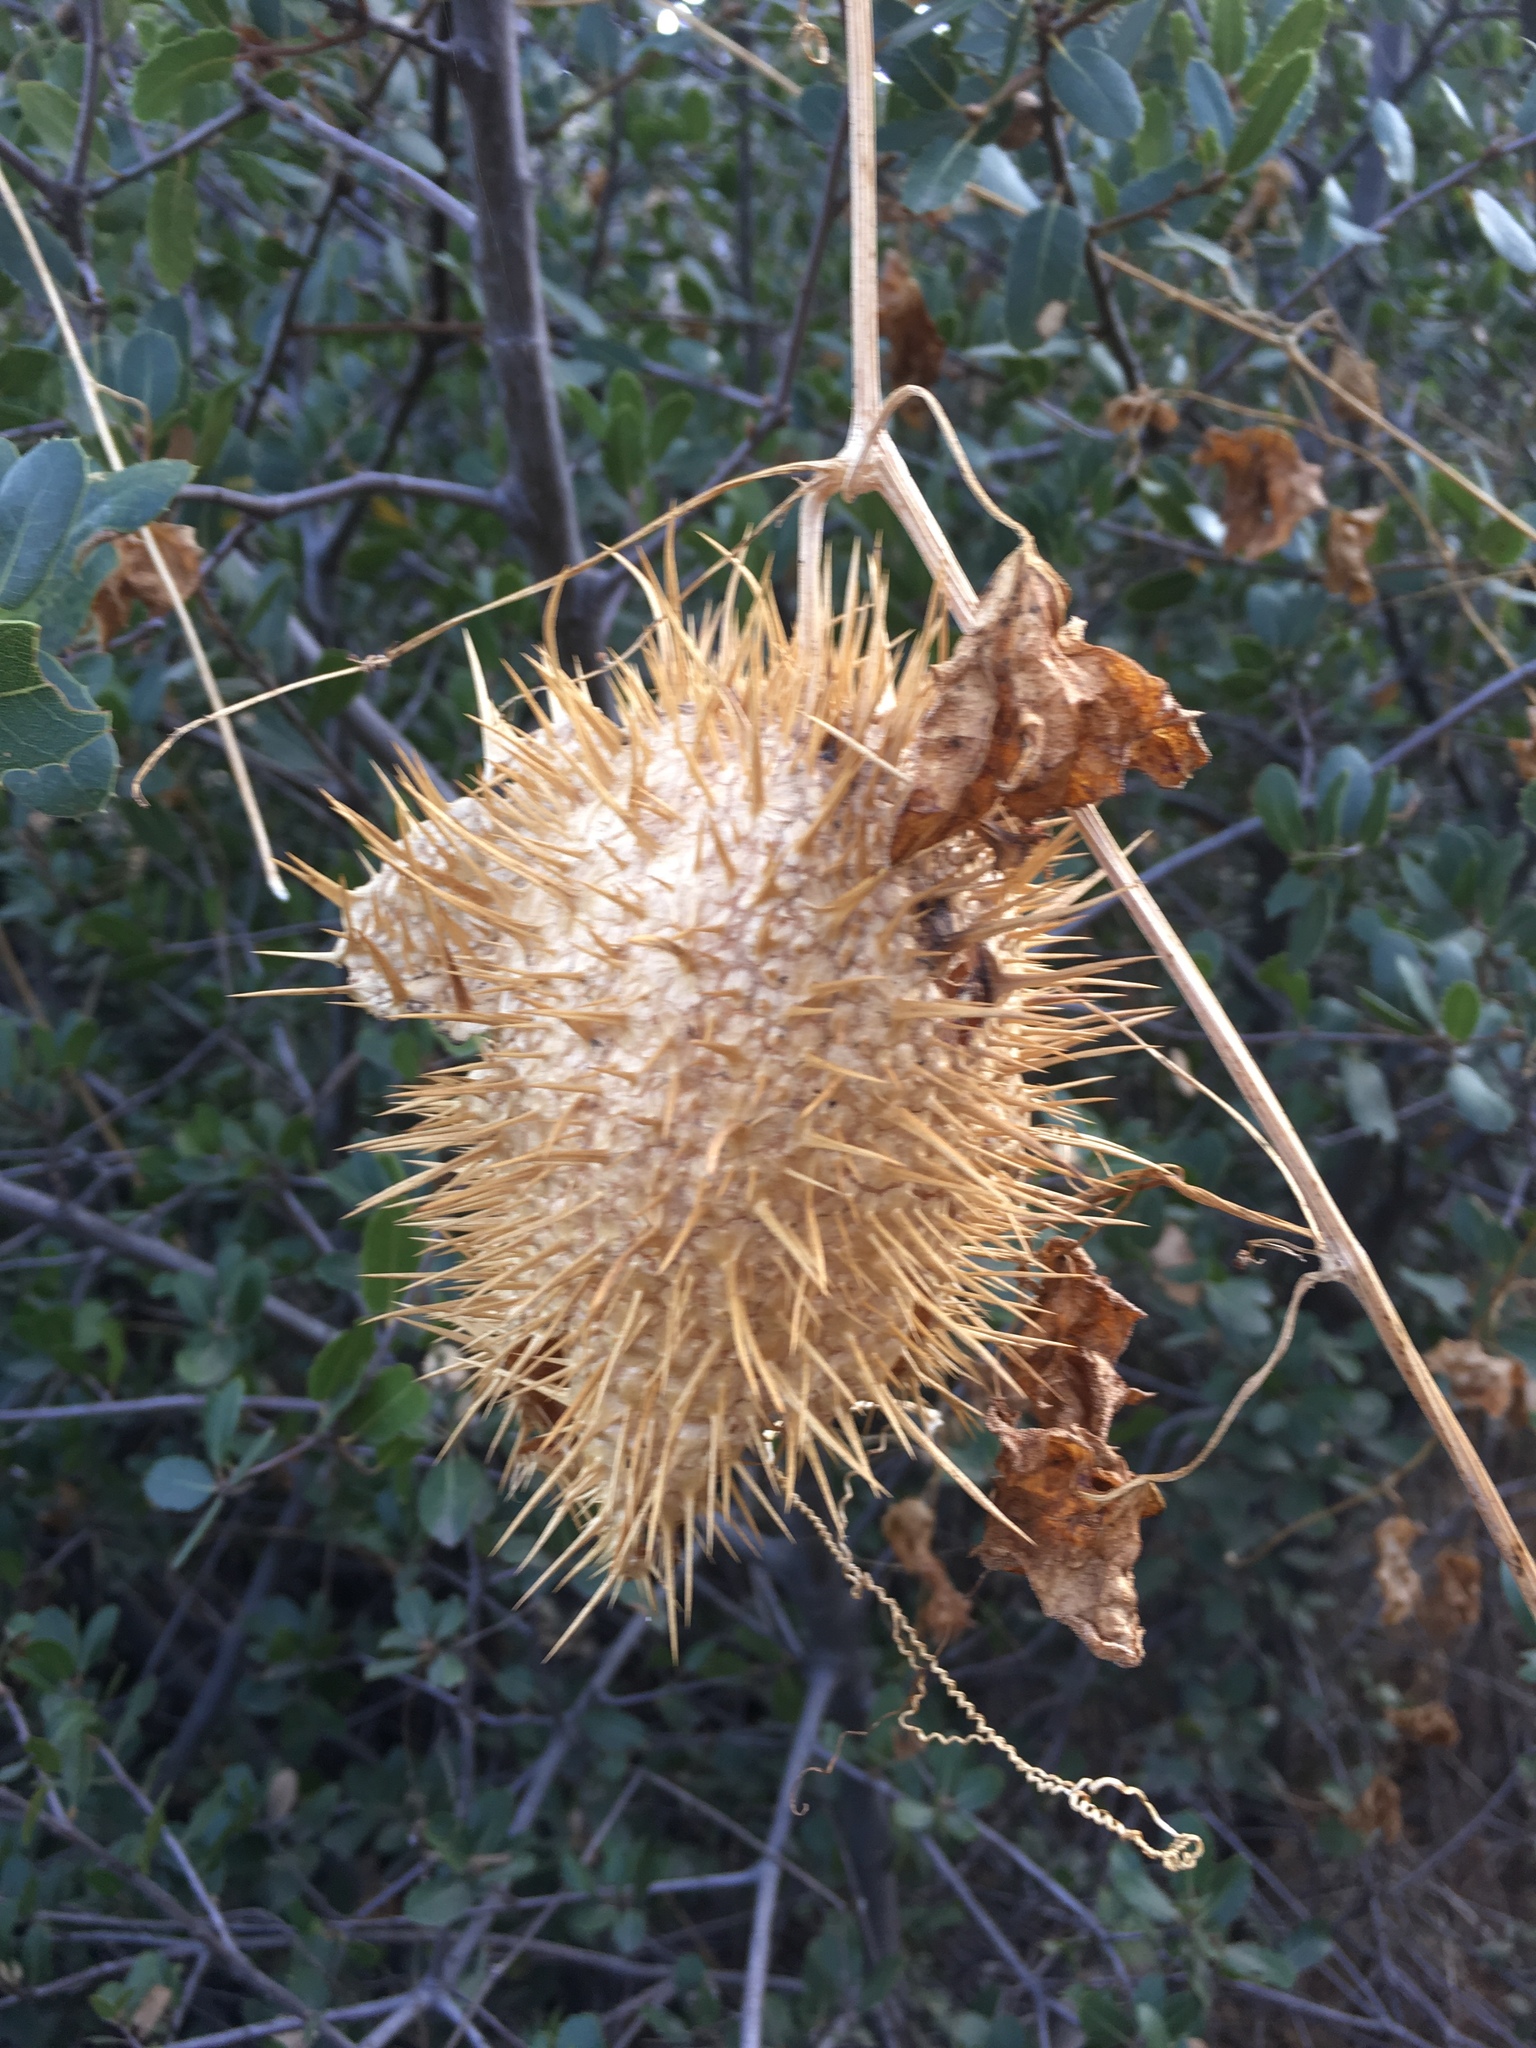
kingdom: Plantae
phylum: Tracheophyta
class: Magnoliopsida
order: Cucurbitales
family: Cucurbitaceae
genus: Marah
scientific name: Marah macrocarpa
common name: Cucamonga manroot
